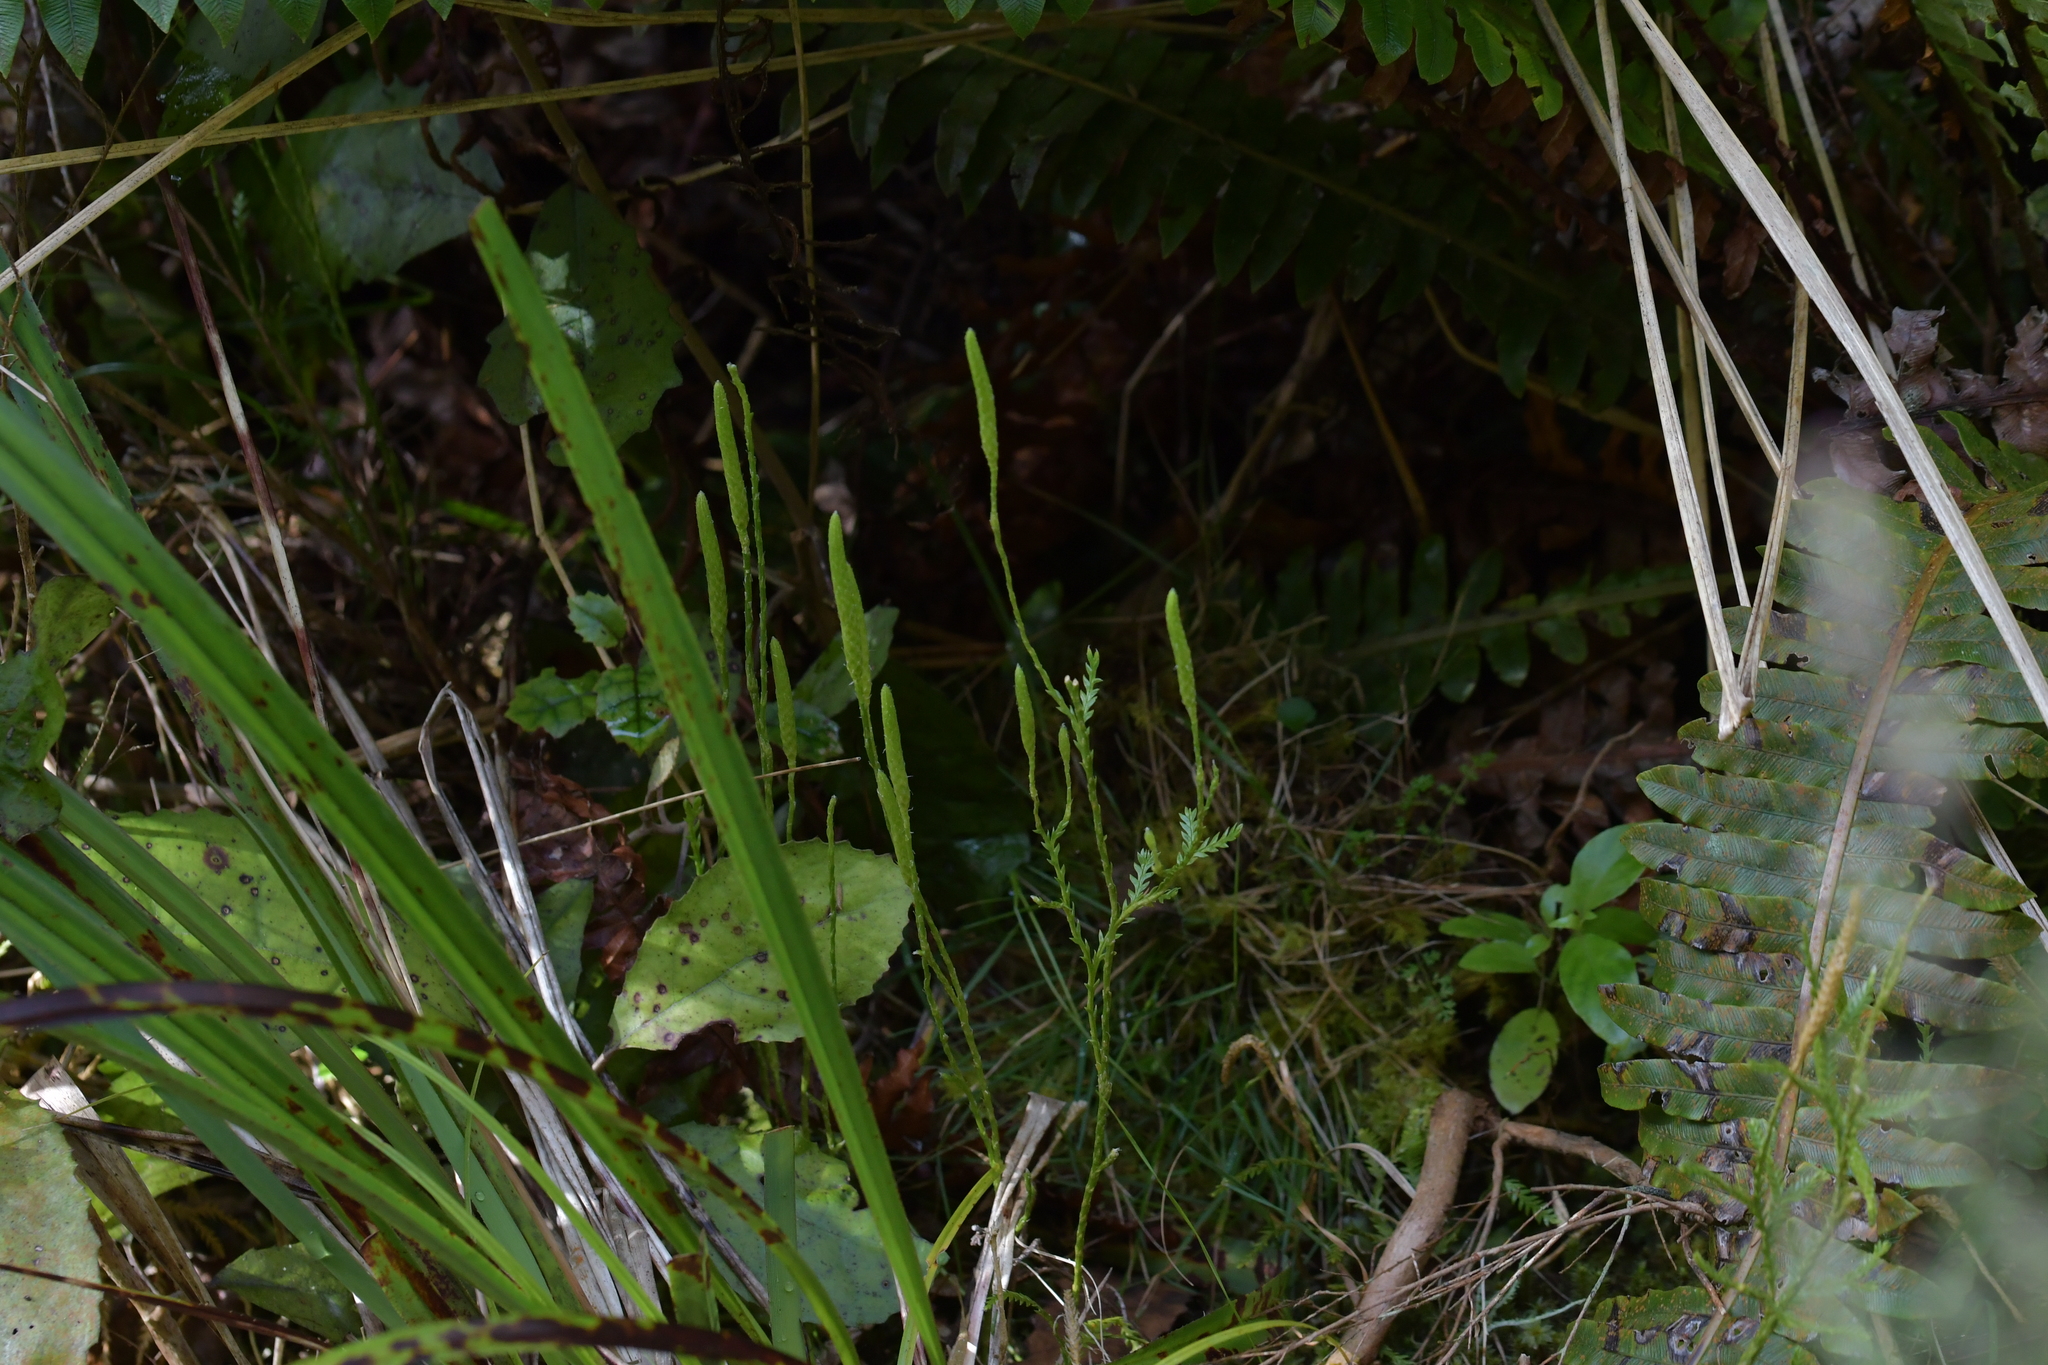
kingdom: Plantae
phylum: Tracheophyta
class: Lycopodiopsida
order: Lycopodiales
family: Lycopodiaceae
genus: Diphasium
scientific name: Diphasium scariosum
